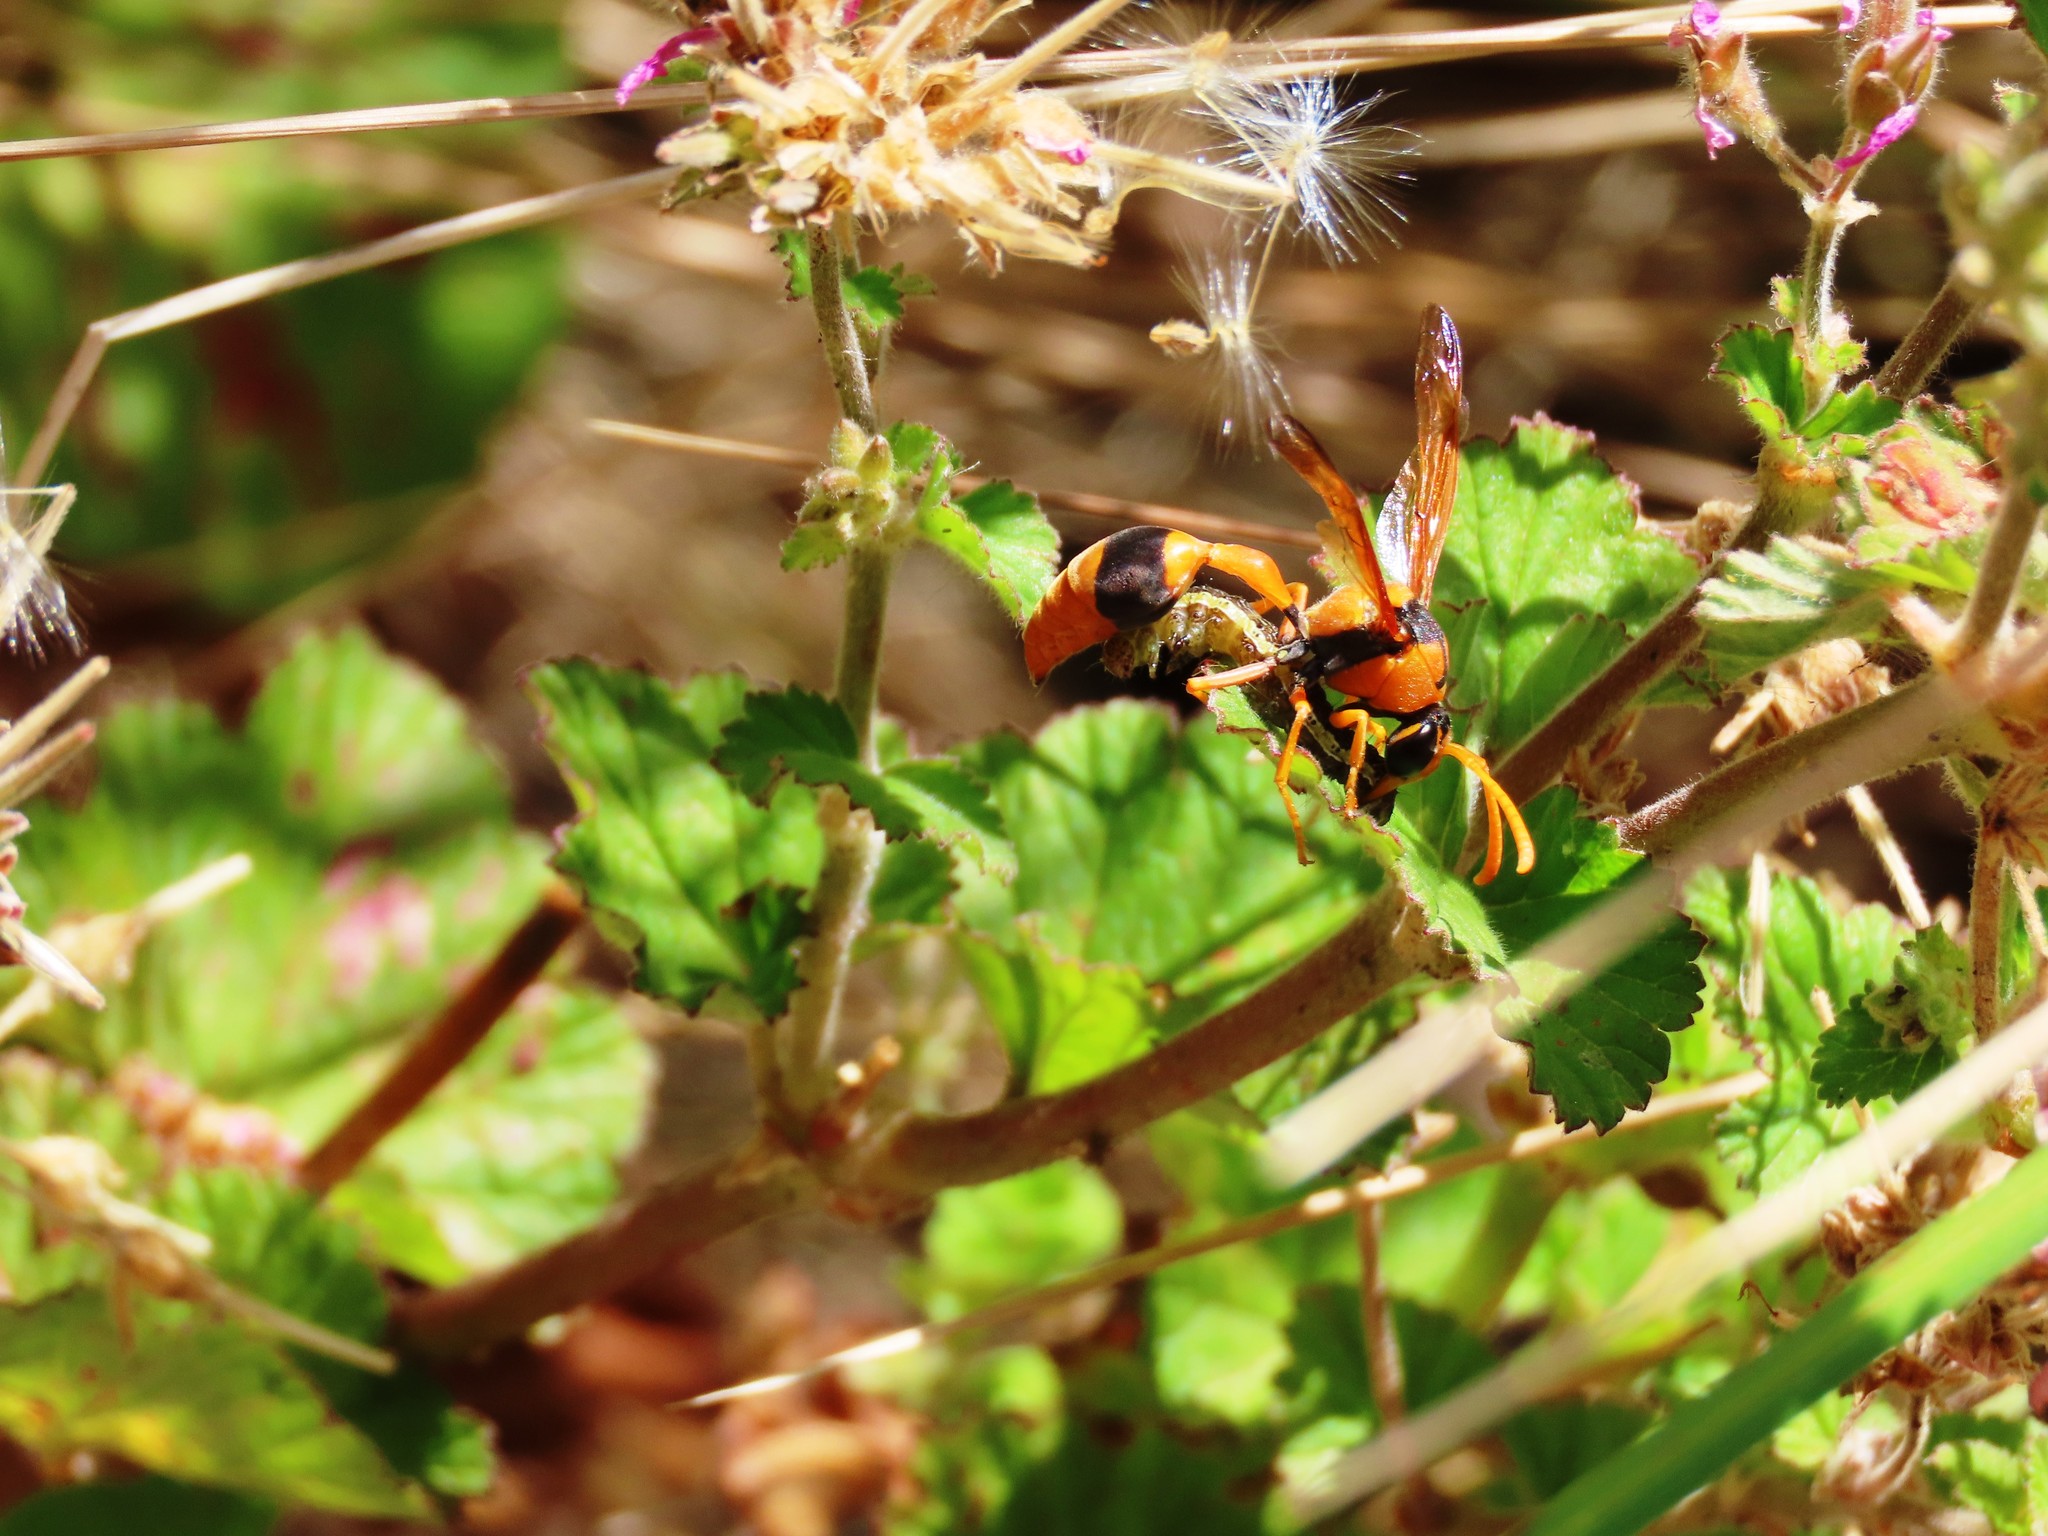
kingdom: Animalia
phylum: Arthropoda
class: Insecta
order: Hymenoptera
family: Eumenidae
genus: Delta
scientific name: Delta bicinctum
